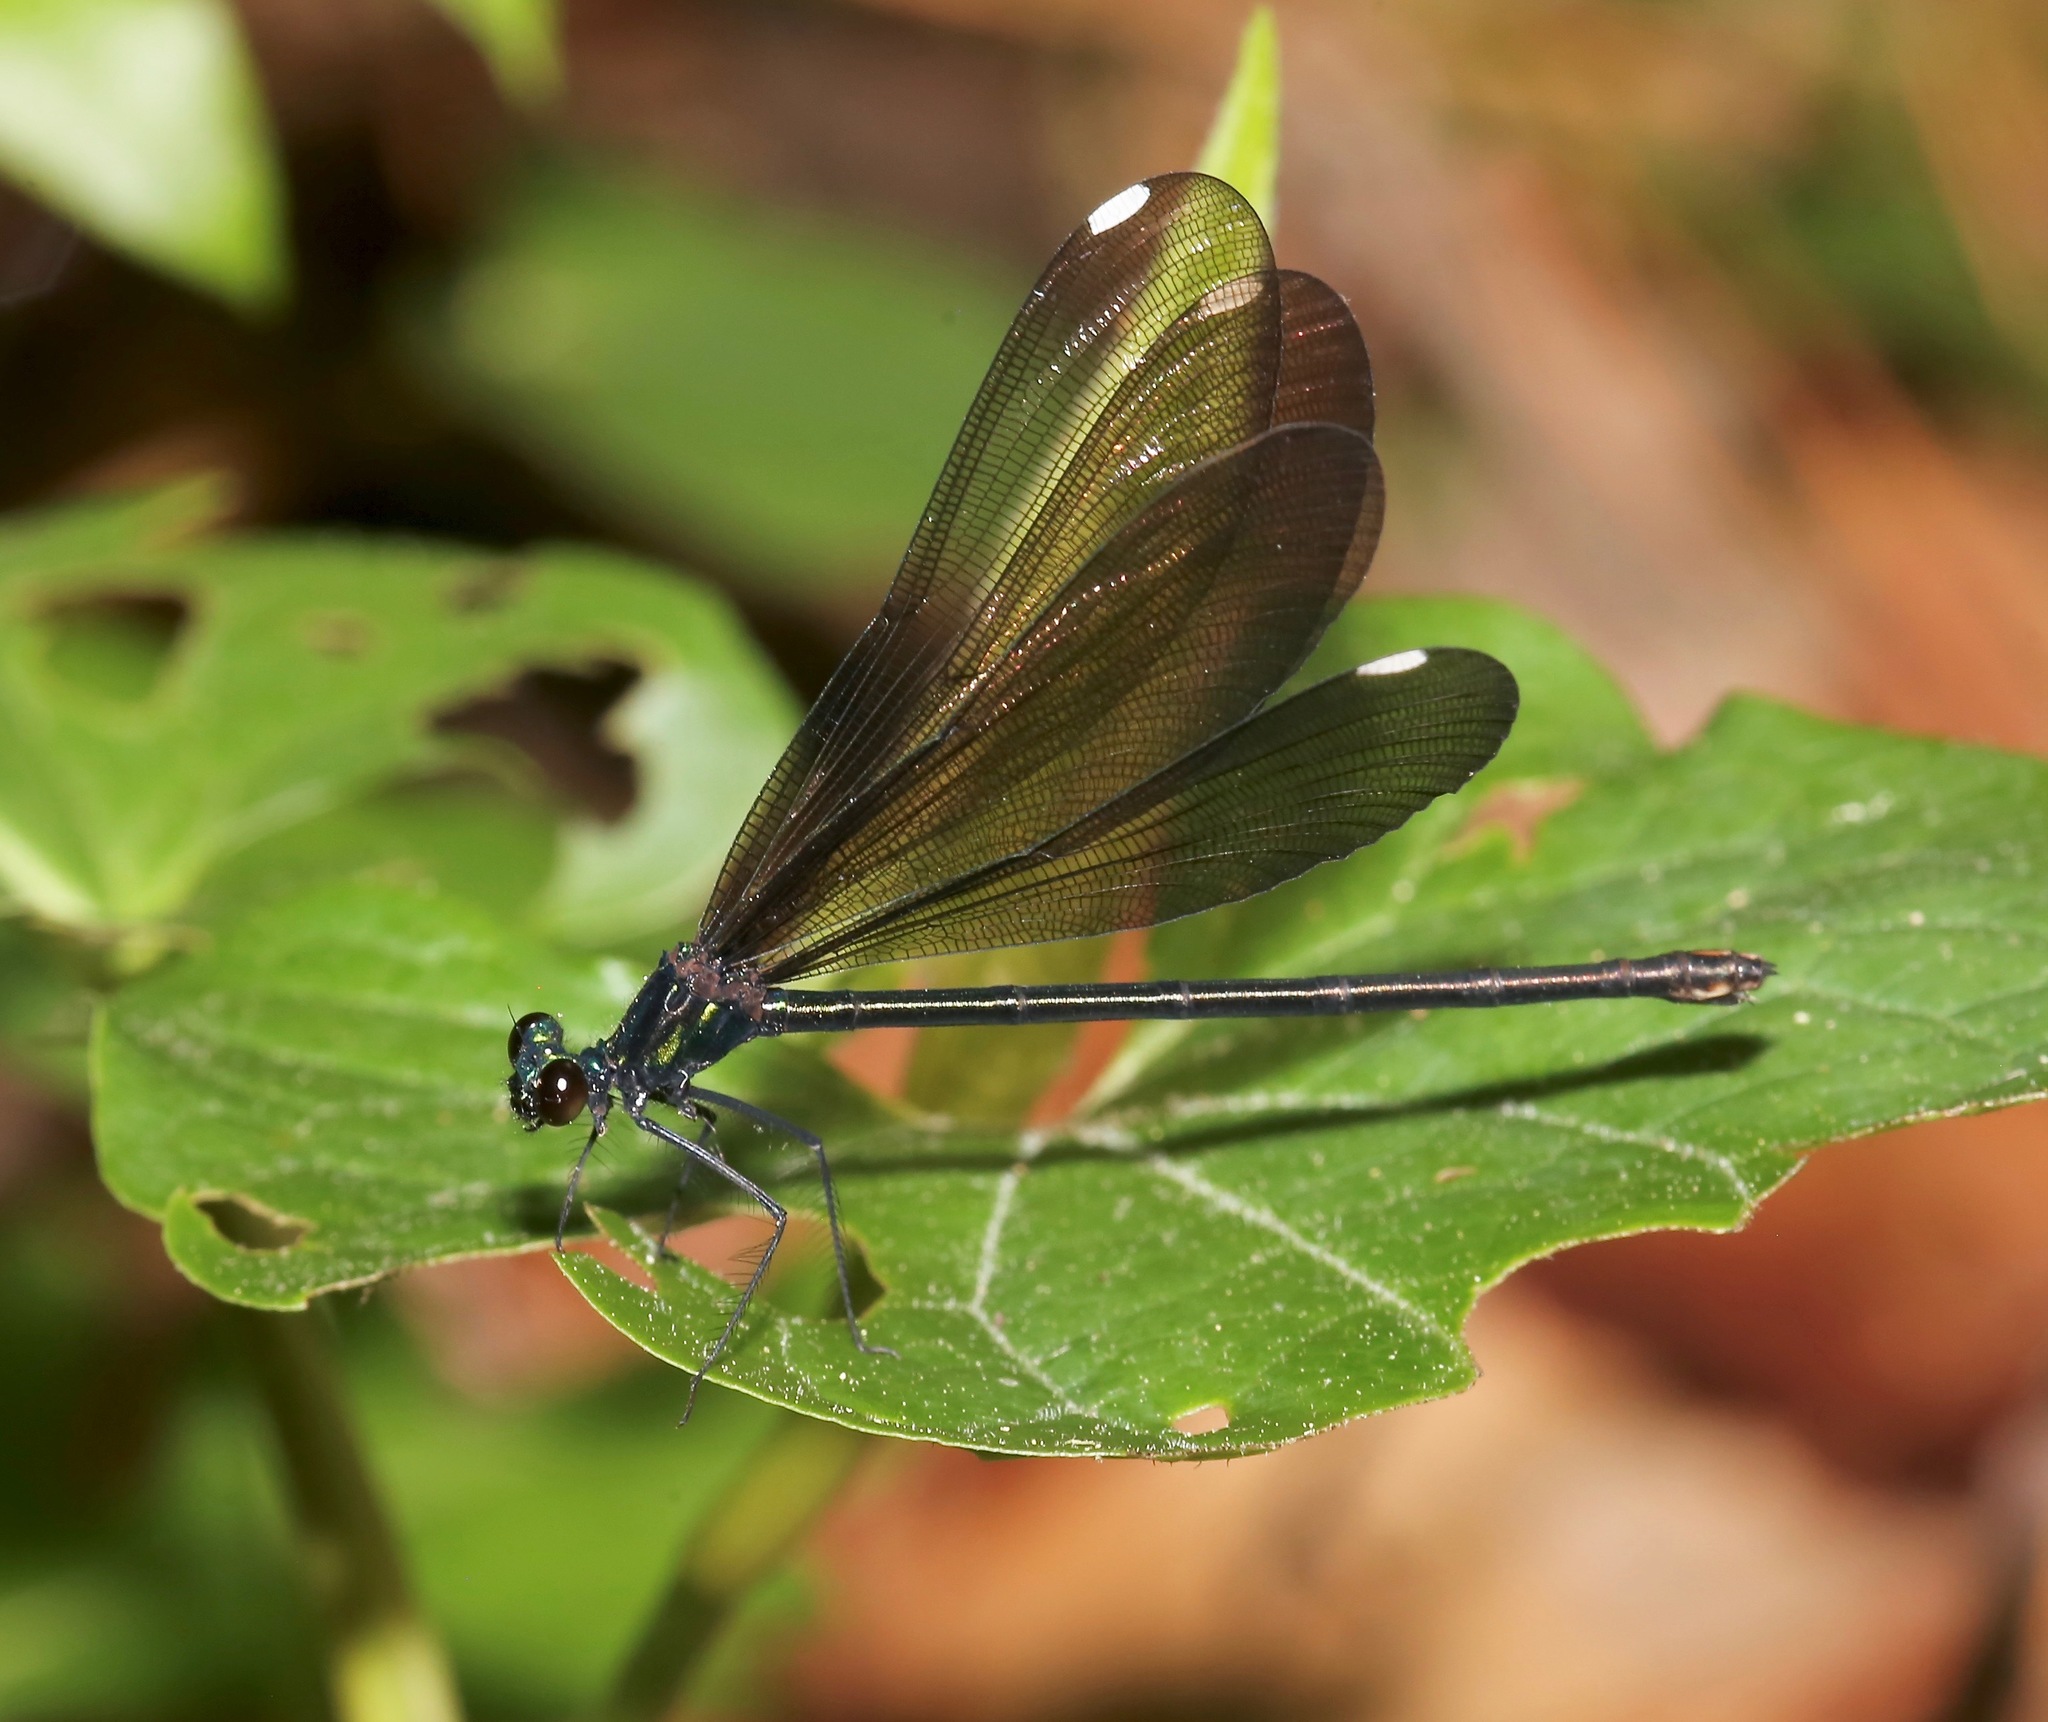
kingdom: Animalia
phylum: Arthropoda
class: Insecta
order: Odonata
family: Calopterygidae
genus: Calopteryx
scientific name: Calopteryx maculata
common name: Ebony jewelwing
